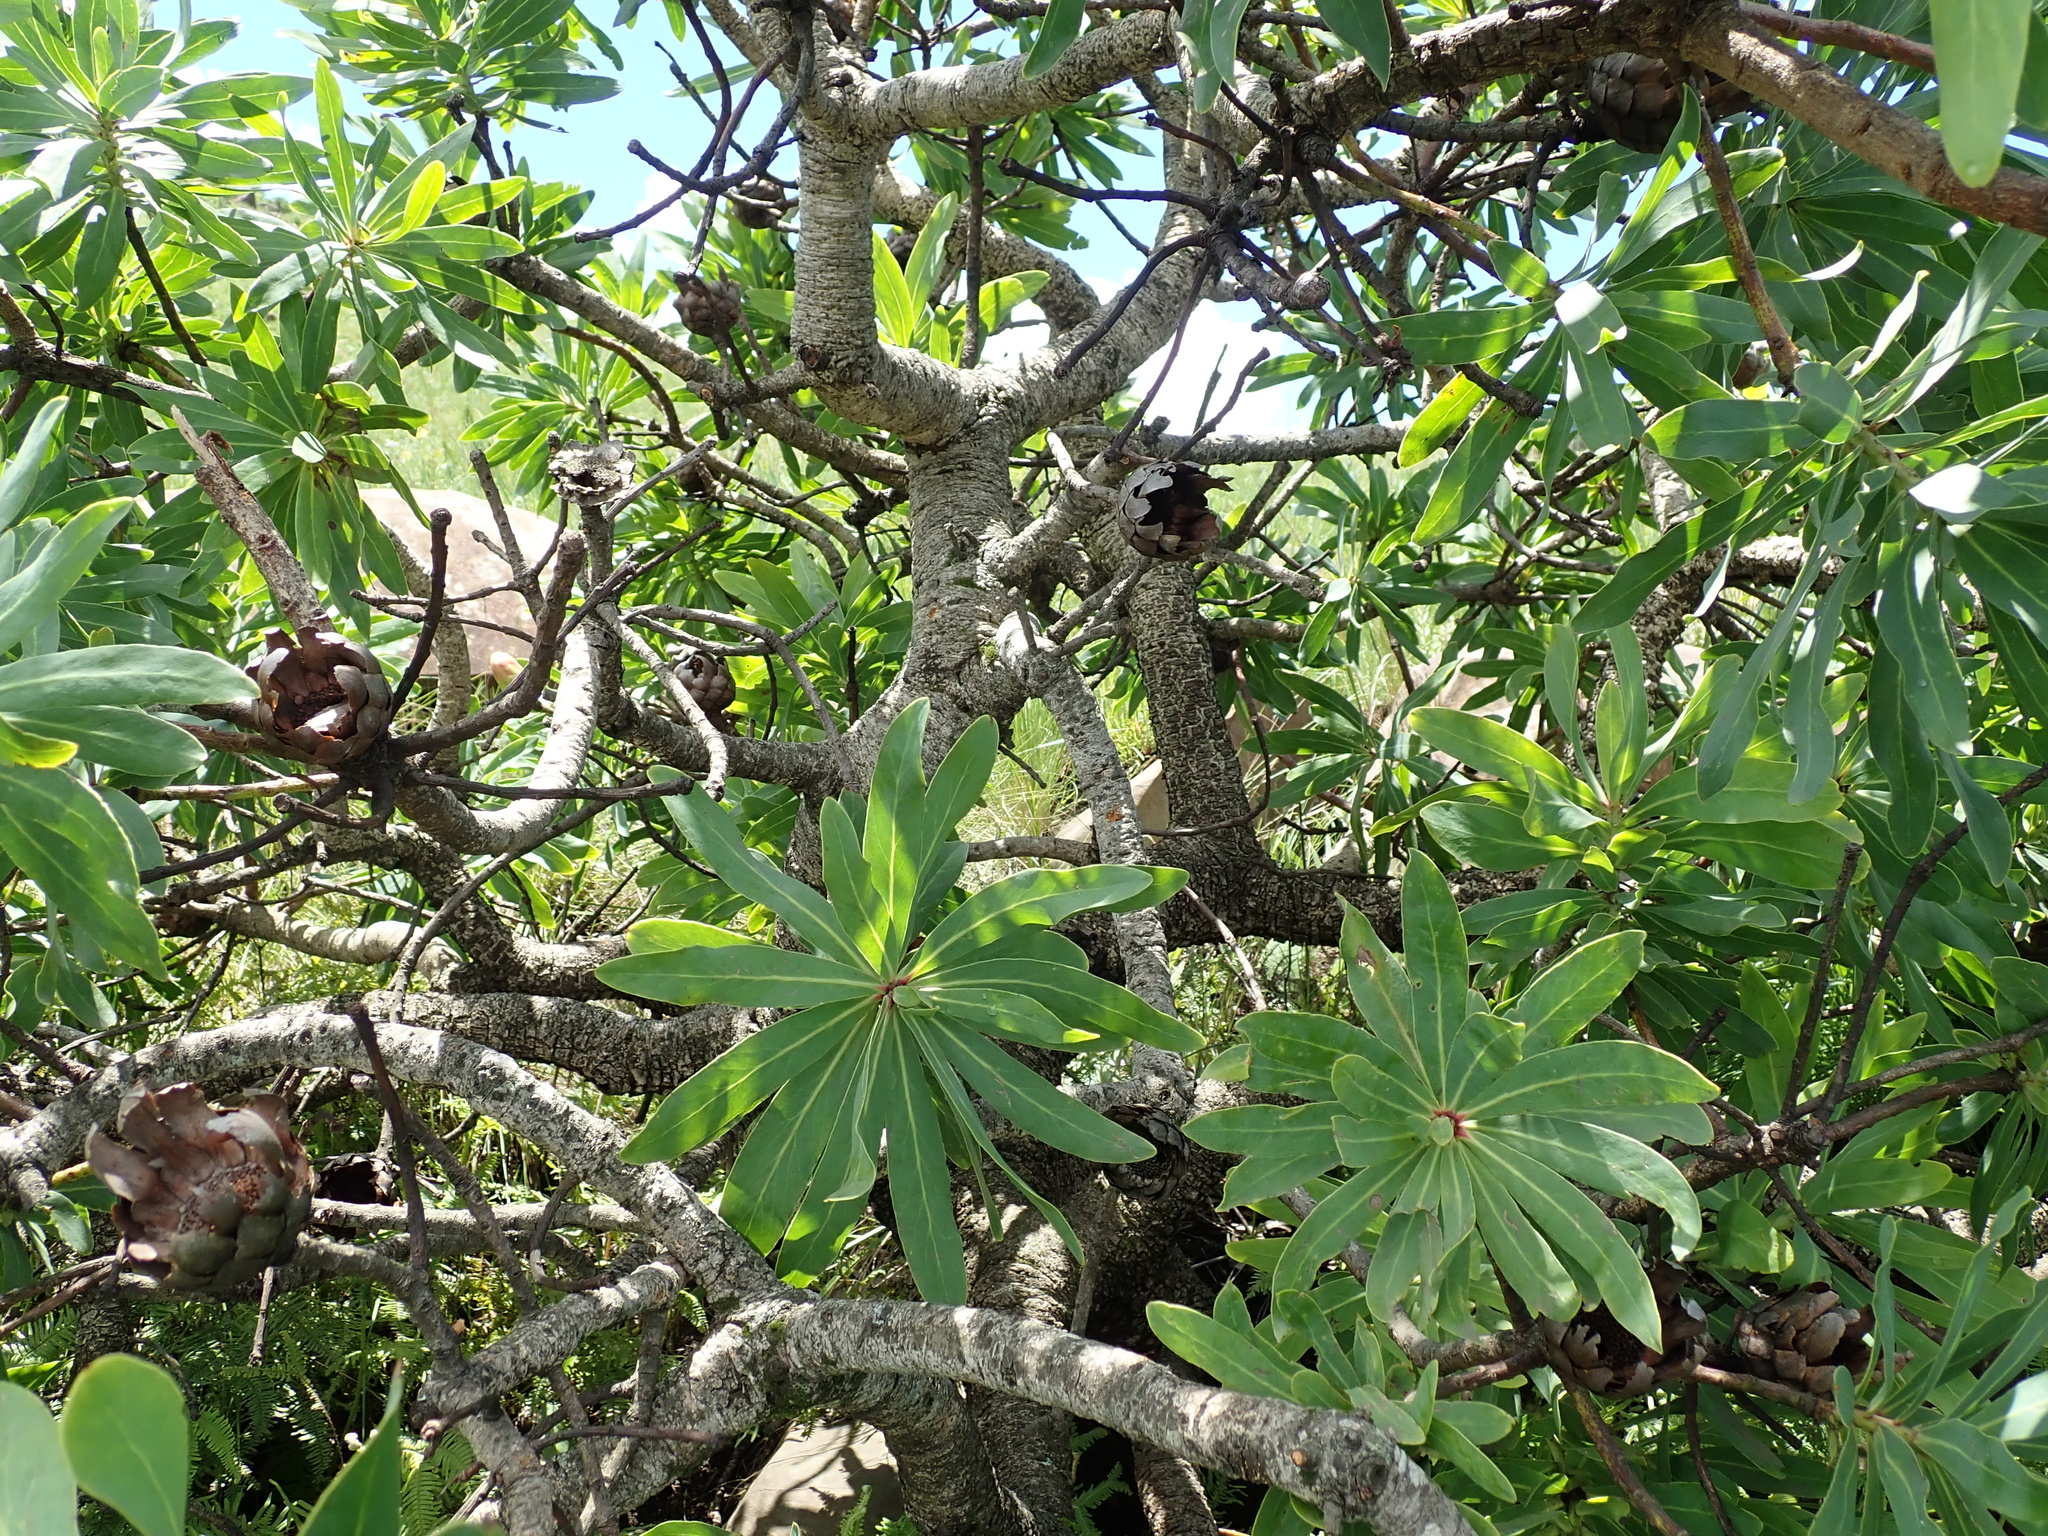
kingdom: Plantae
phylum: Tracheophyta
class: Magnoliopsida
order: Proteales
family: Proteaceae
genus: Protea
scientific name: Protea caffra
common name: Common sugarbush
